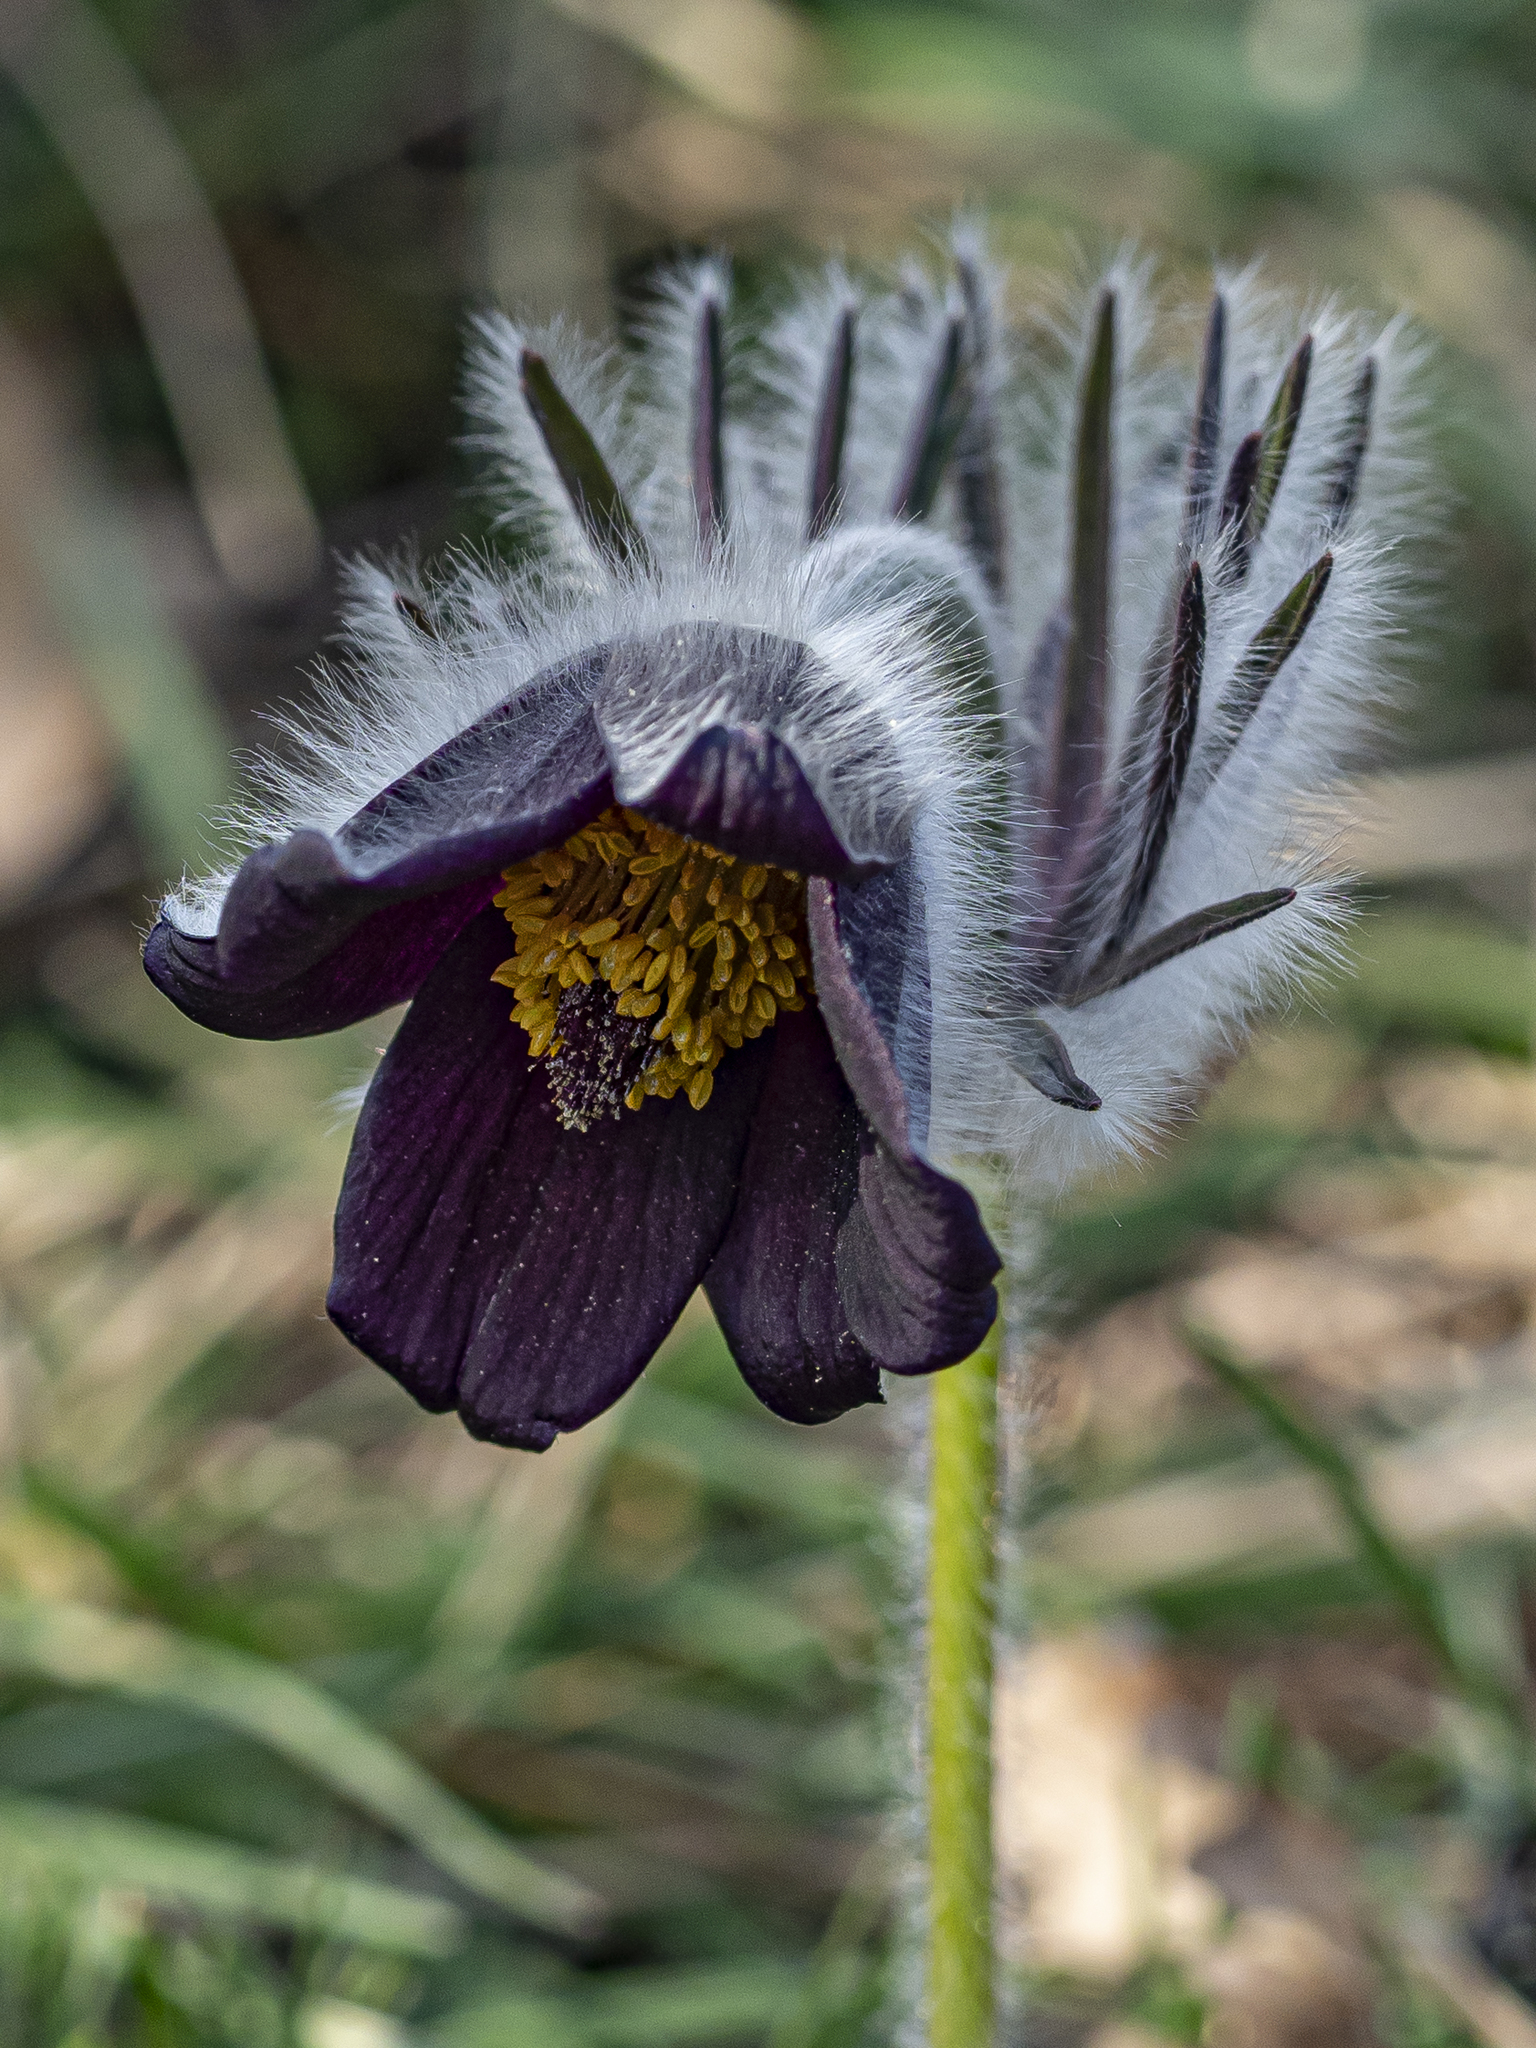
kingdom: Plantae
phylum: Tracheophyta
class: Magnoliopsida
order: Ranunculales
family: Ranunculaceae
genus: Pulsatilla
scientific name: Pulsatilla pratensis
